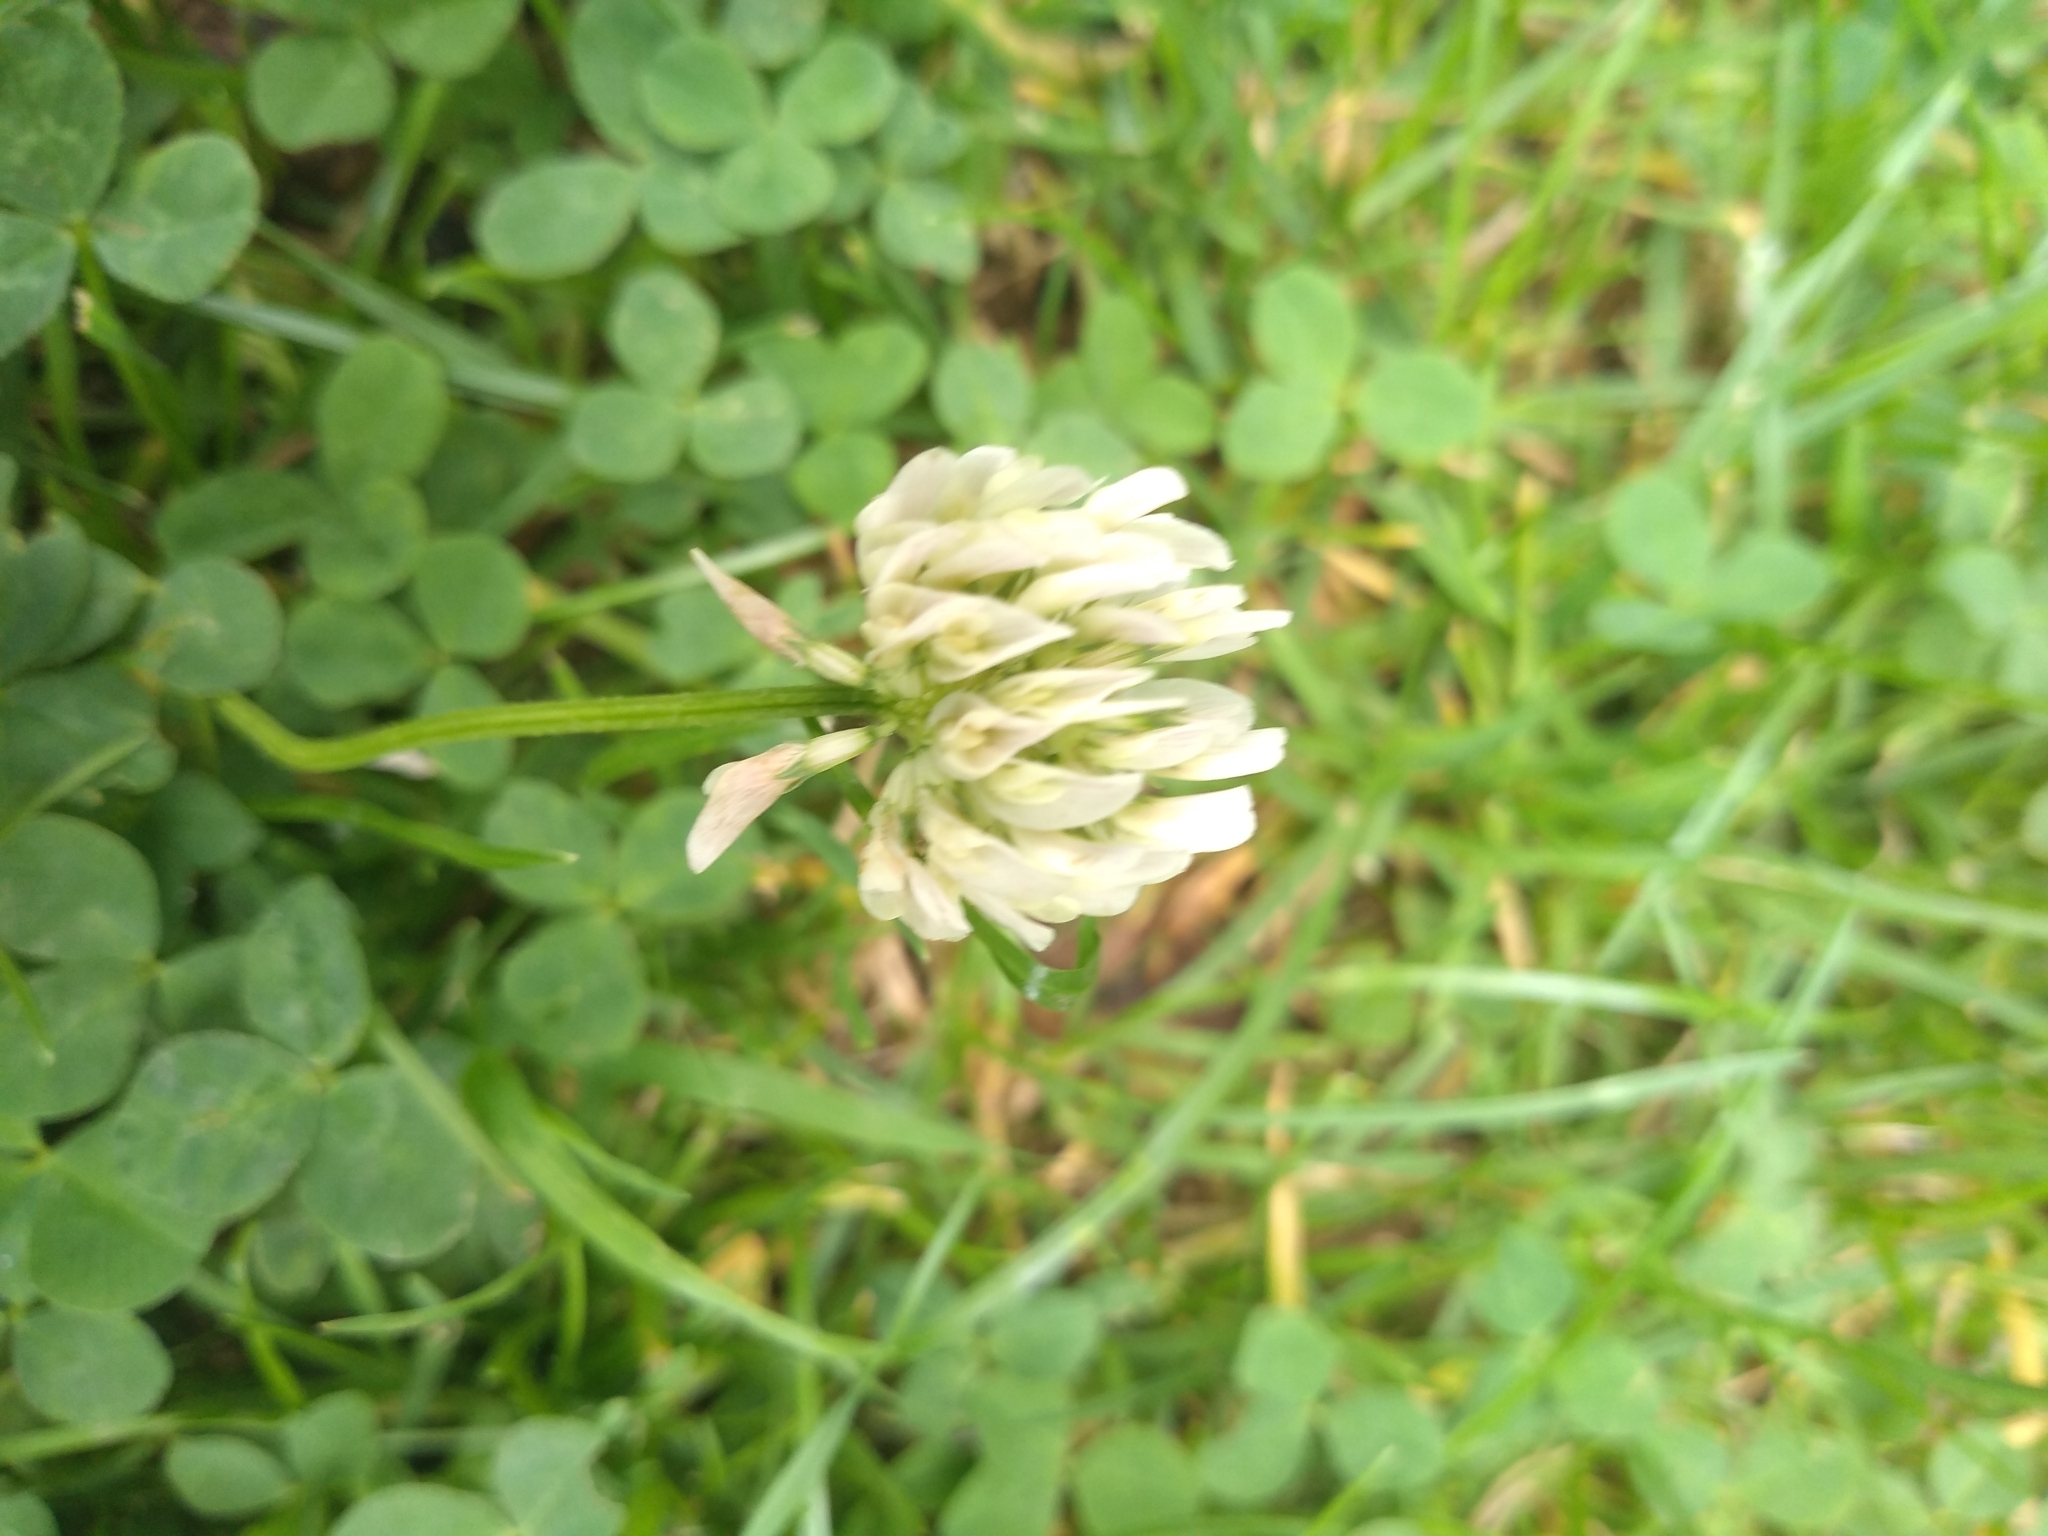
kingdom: Plantae
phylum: Tracheophyta
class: Magnoliopsida
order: Fabales
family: Fabaceae
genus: Trifolium
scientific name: Trifolium repens
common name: White clover
